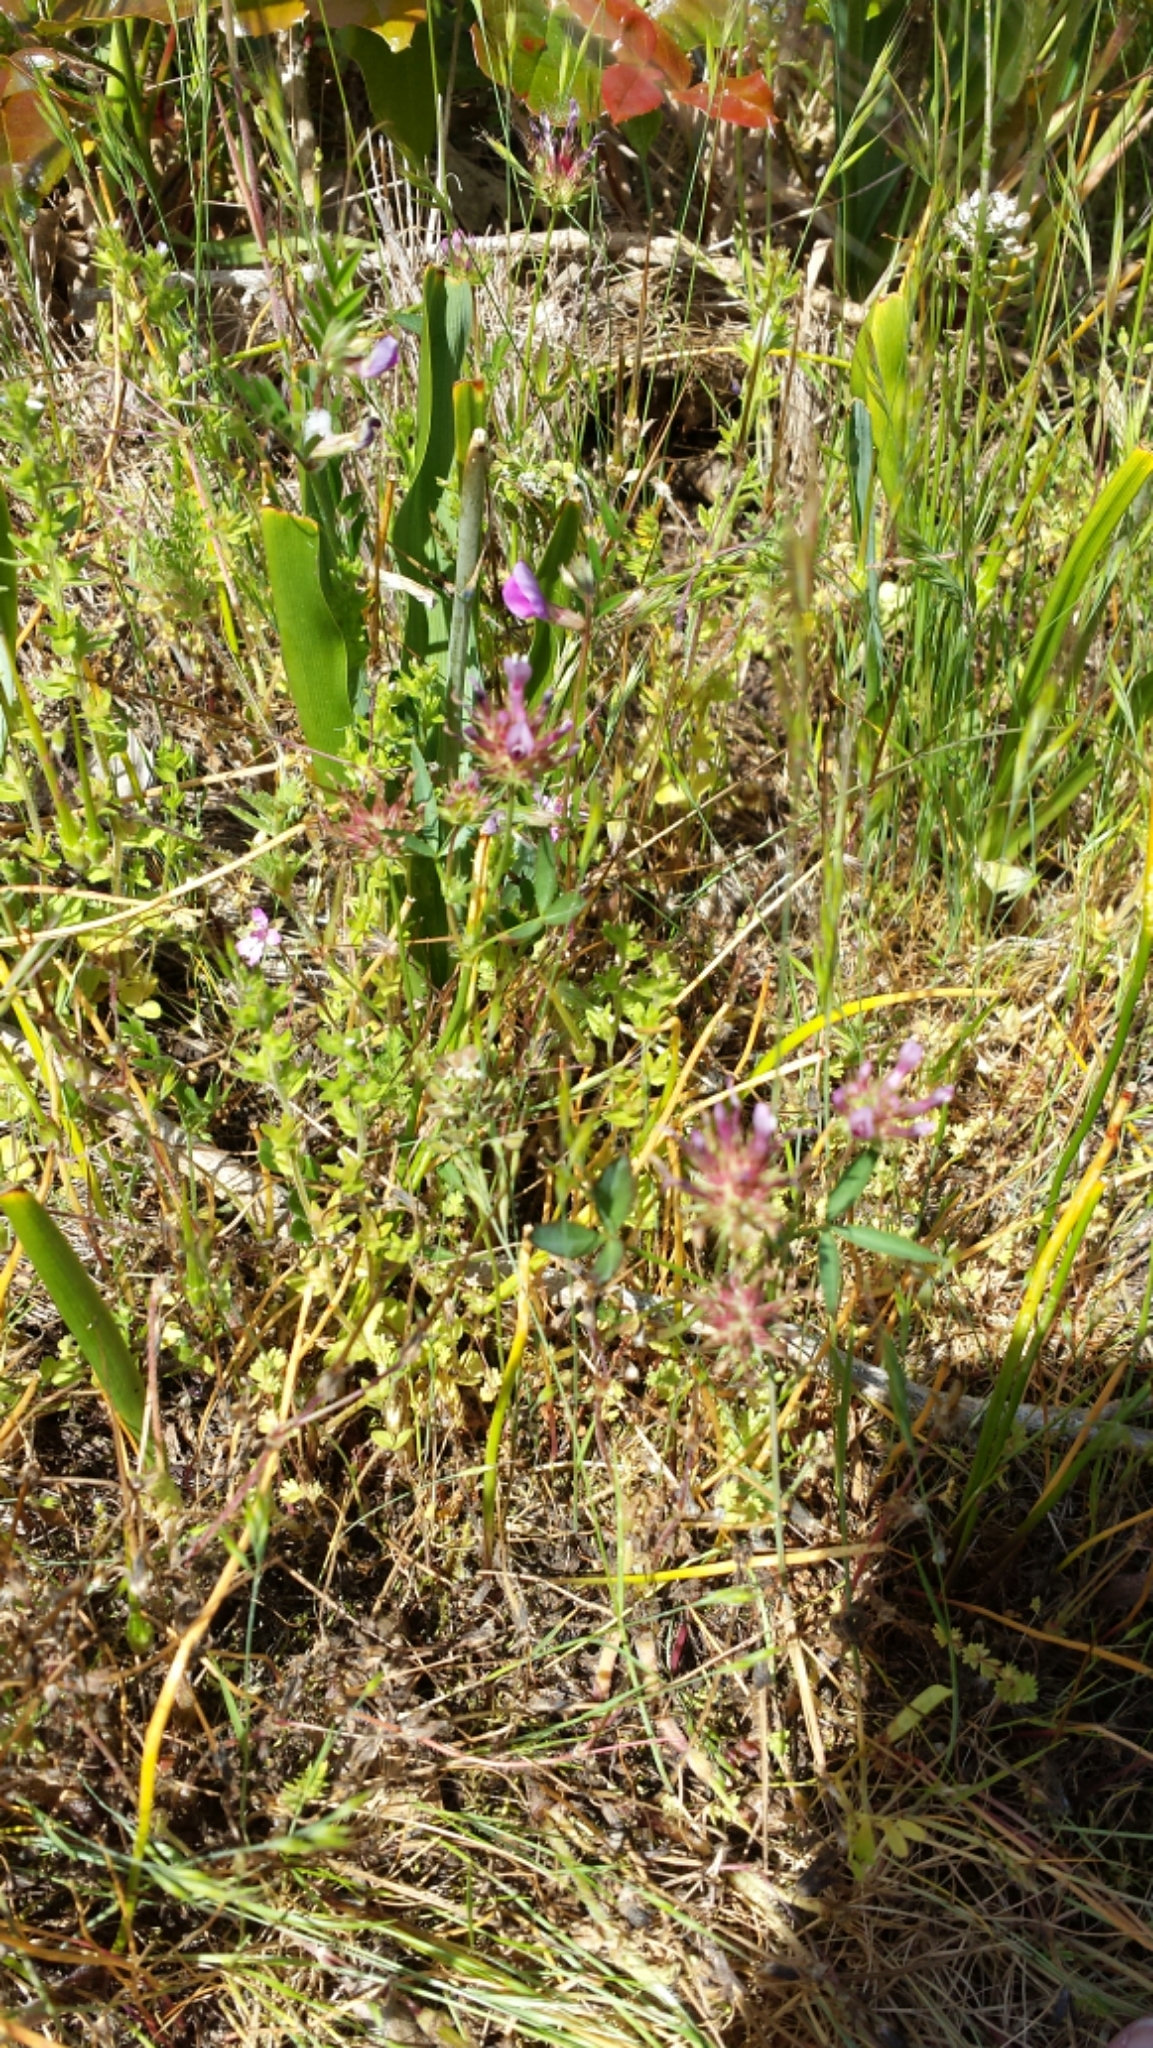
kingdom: Plantae
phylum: Tracheophyta
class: Magnoliopsida
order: Fabales
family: Fabaceae
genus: Trifolium
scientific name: Trifolium willdenovii
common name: Tomcat clover
